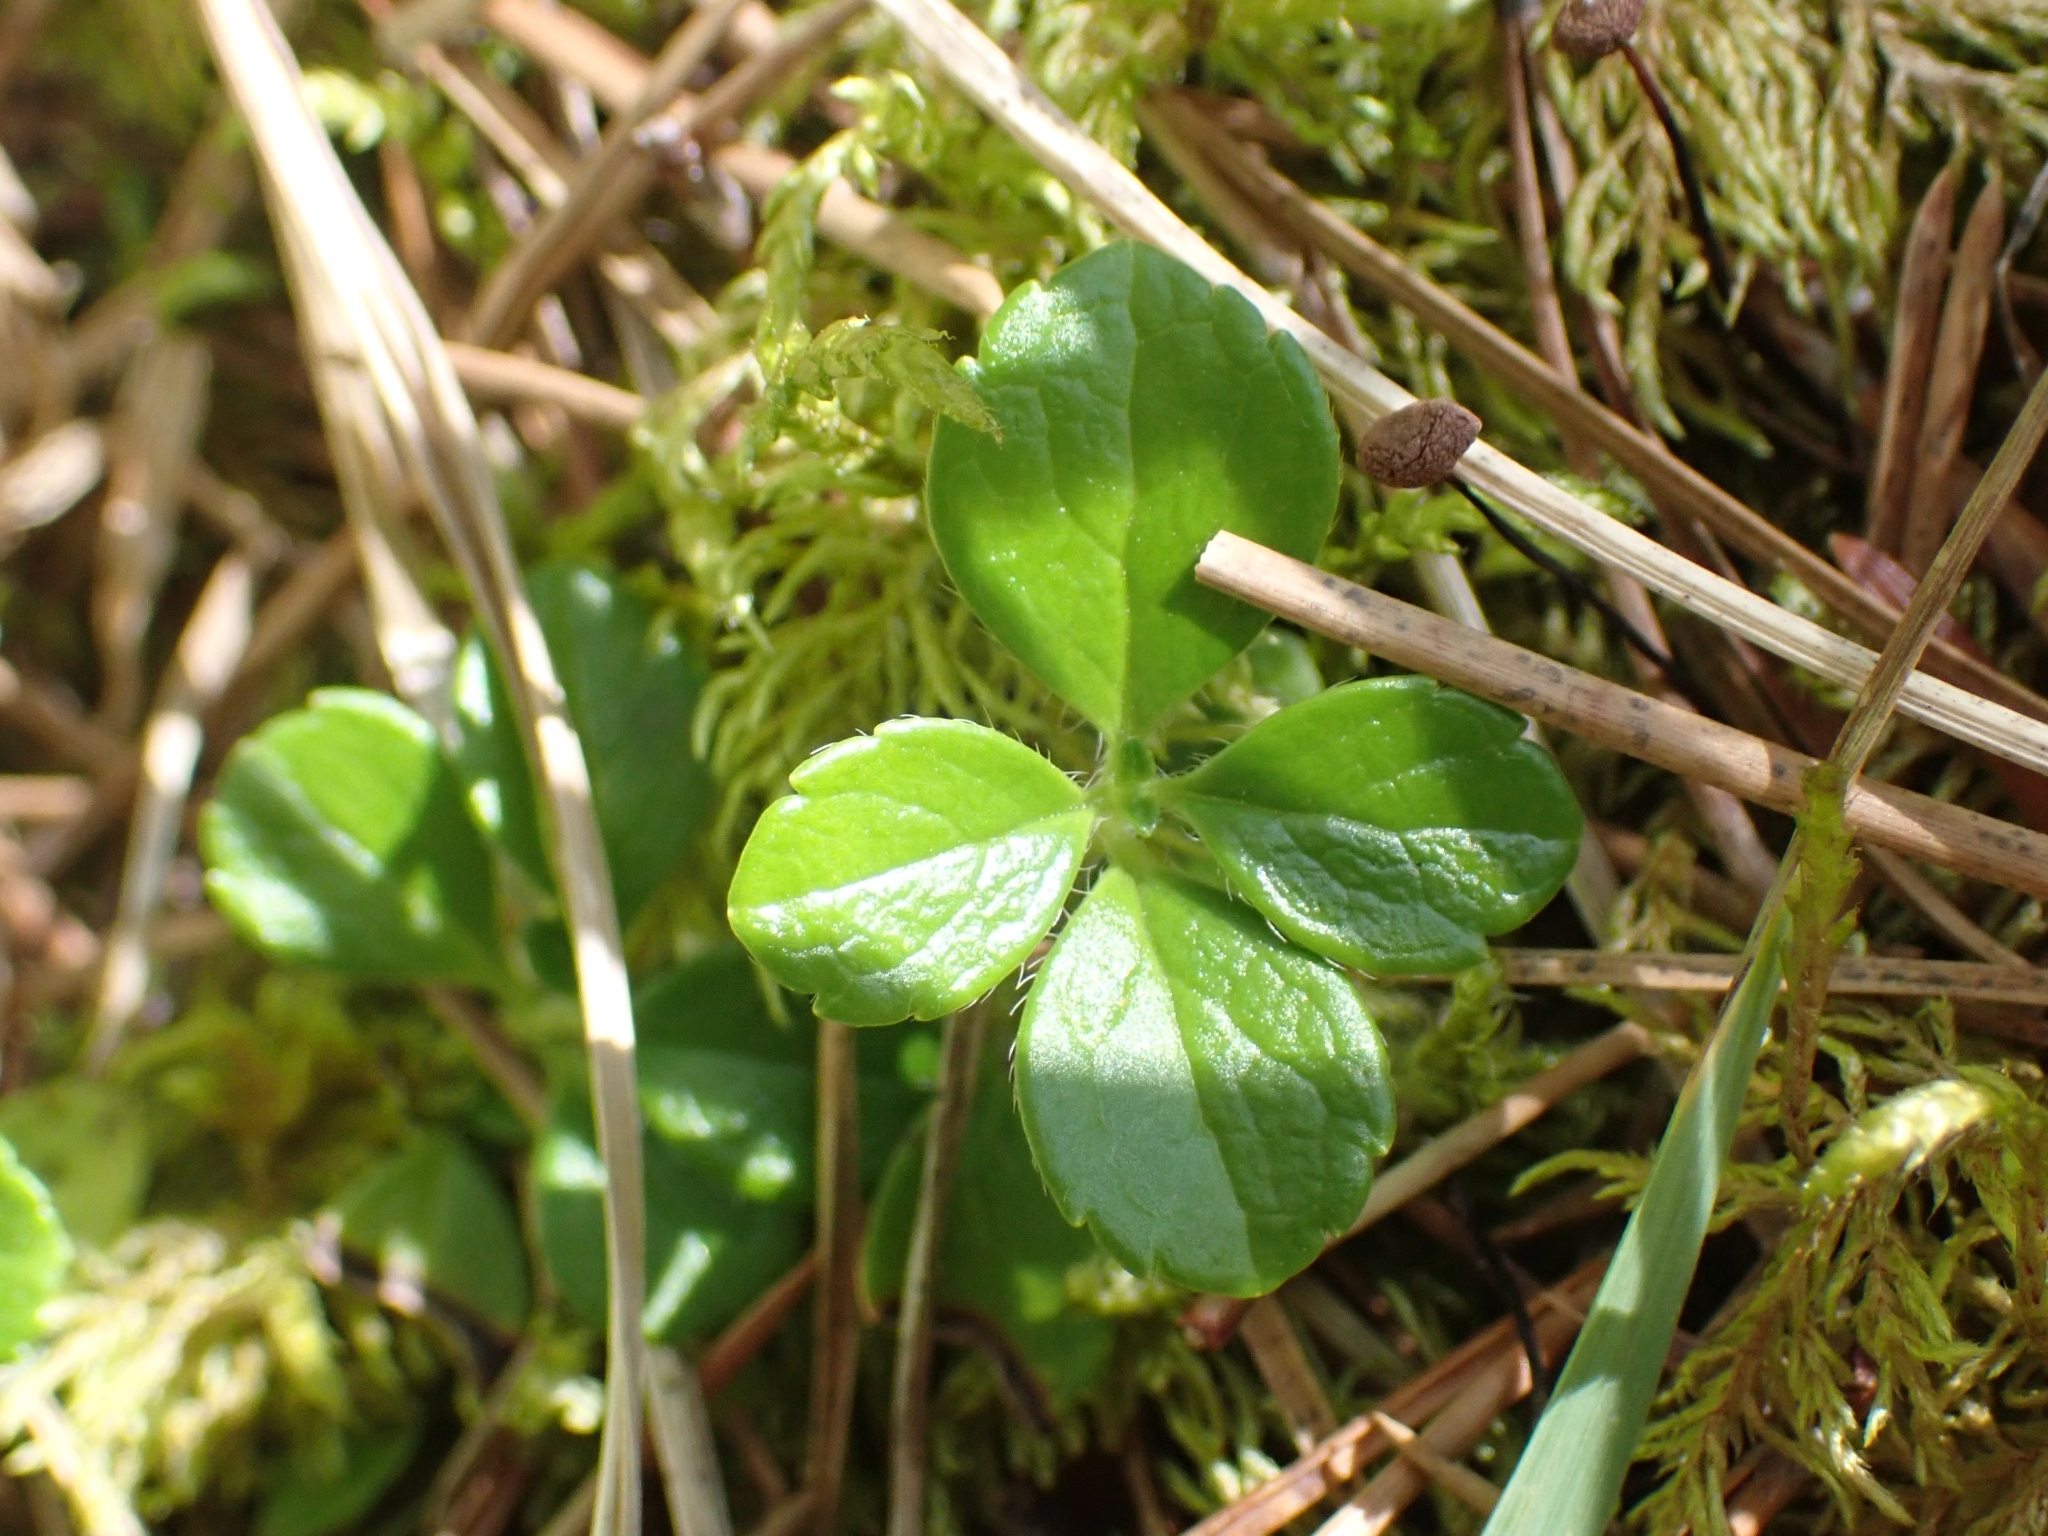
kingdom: Plantae
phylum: Tracheophyta
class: Magnoliopsida
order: Dipsacales
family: Caprifoliaceae
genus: Linnaea
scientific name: Linnaea borealis
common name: Twinflower
